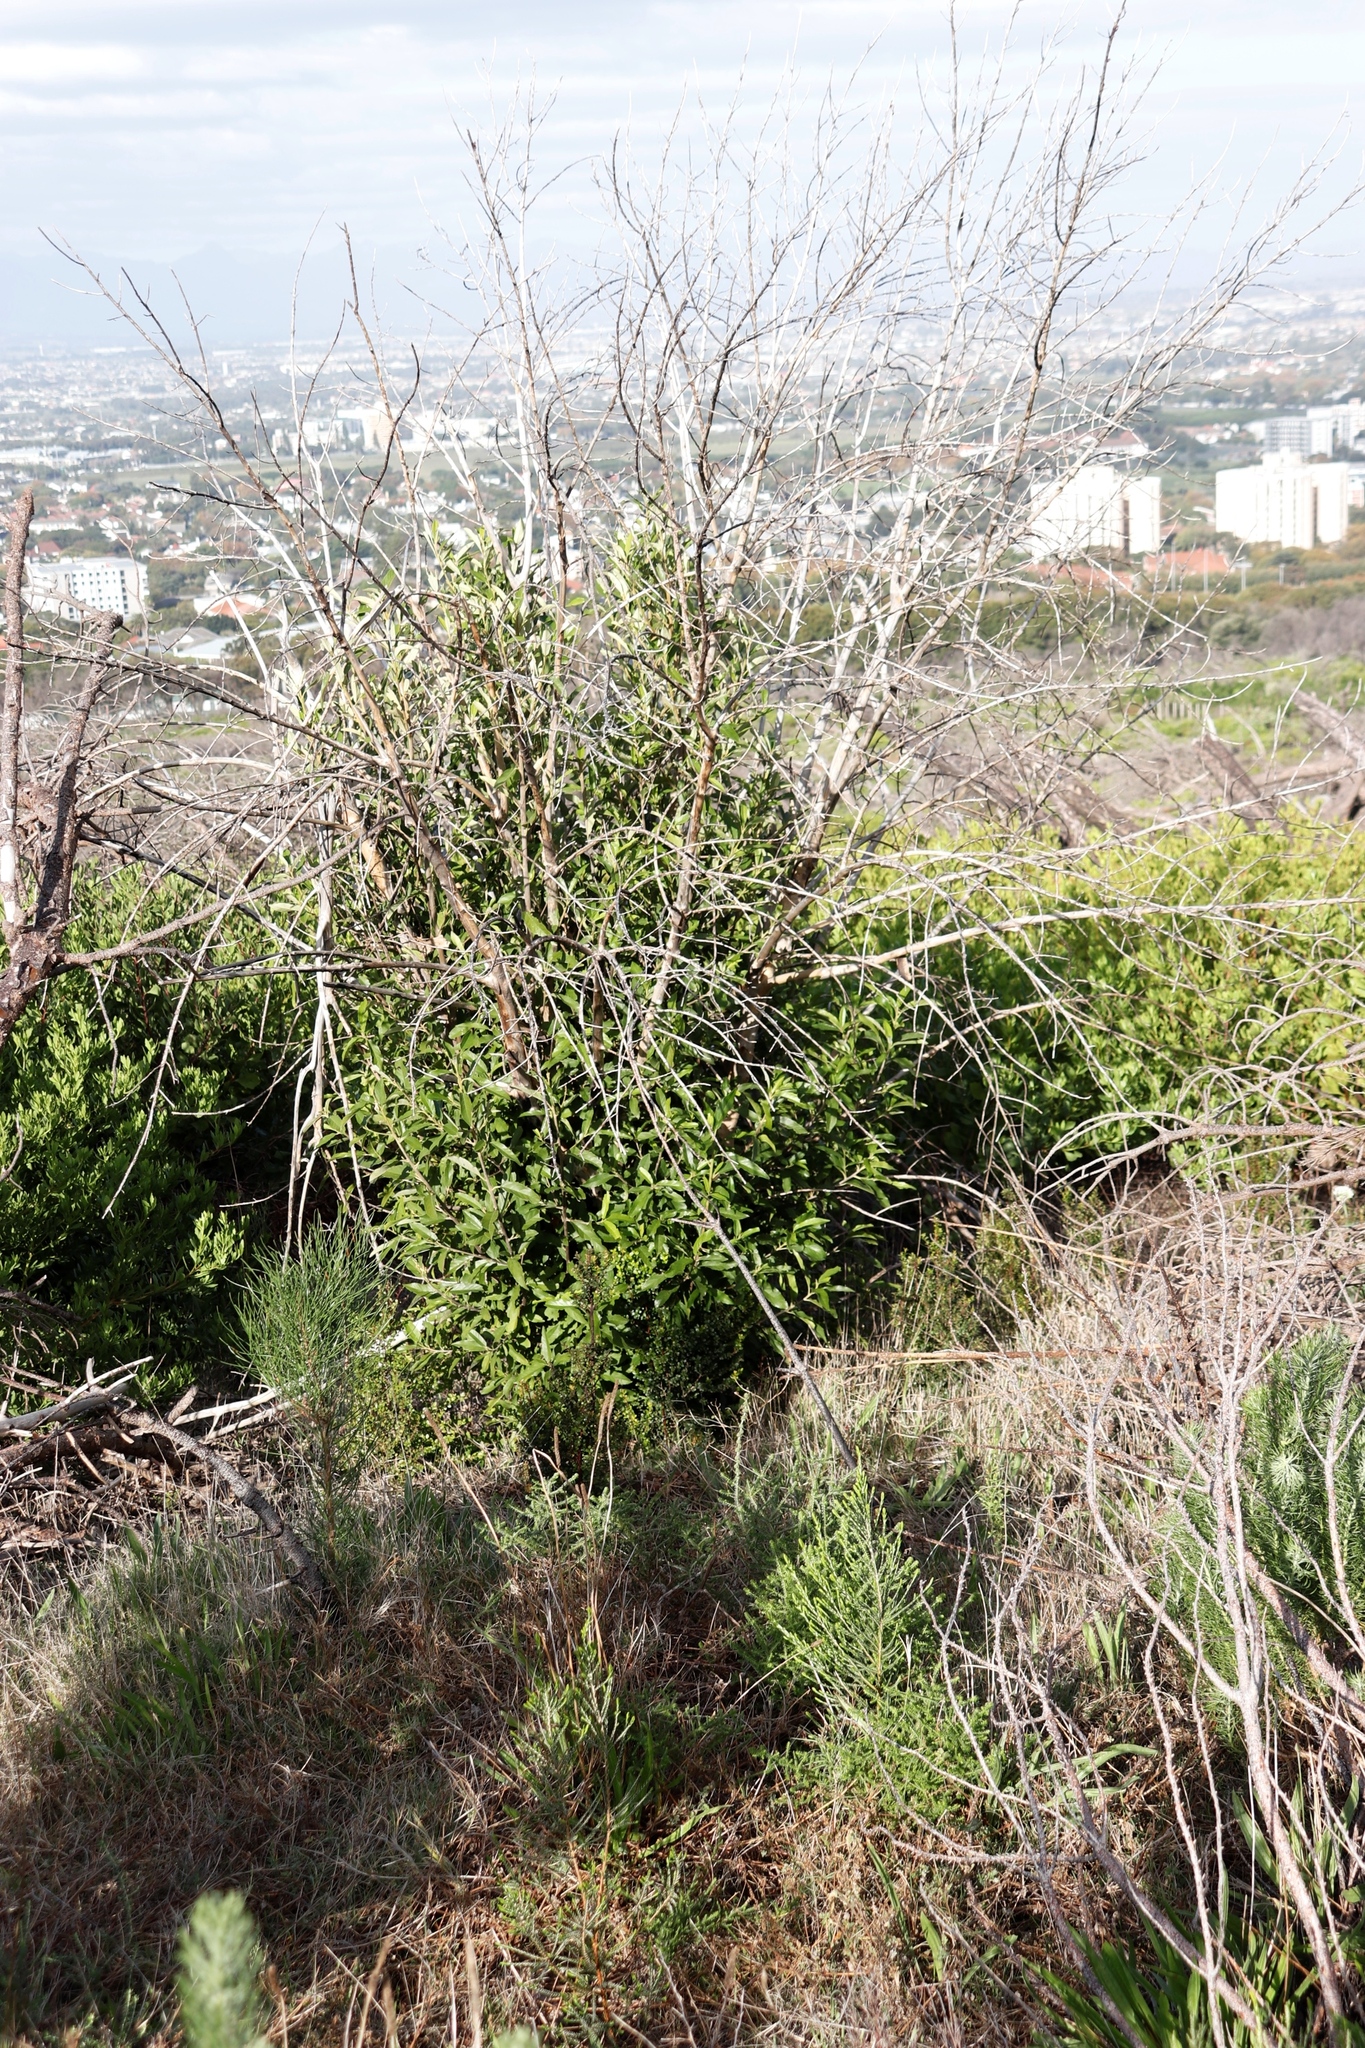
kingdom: Plantae
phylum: Tracheophyta
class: Magnoliopsida
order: Malpighiales
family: Achariaceae
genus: Kiggelaria
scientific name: Kiggelaria africana
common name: Wild peach
